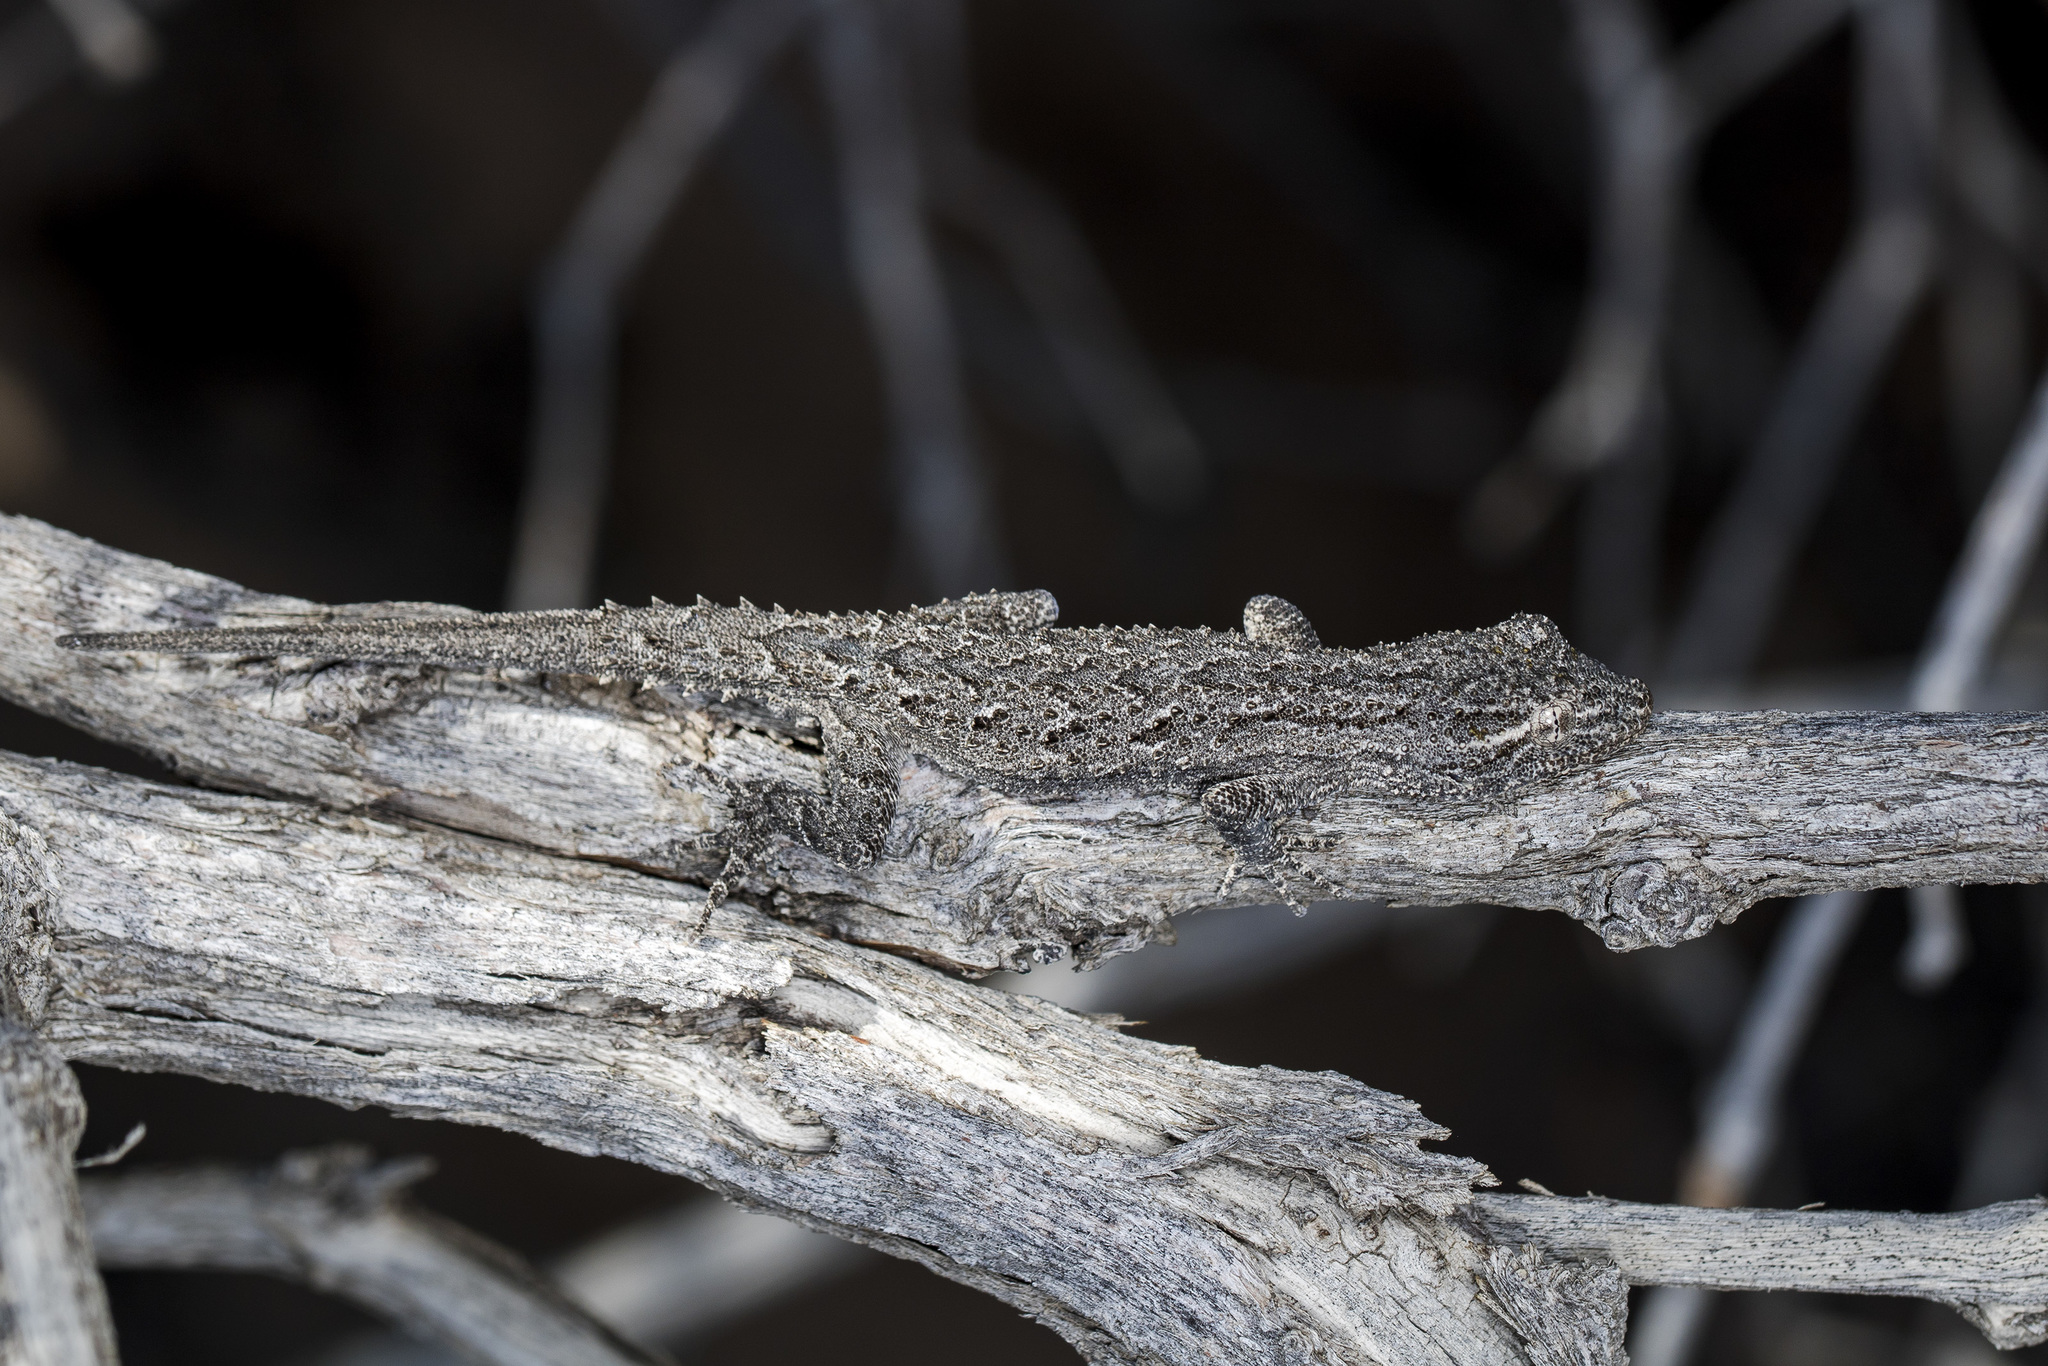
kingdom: Animalia
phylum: Chordata
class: Squamata
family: Gekkonidae
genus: Mediodactylus
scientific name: Mediodactylus russowii
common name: Grey thin-toed gecko
